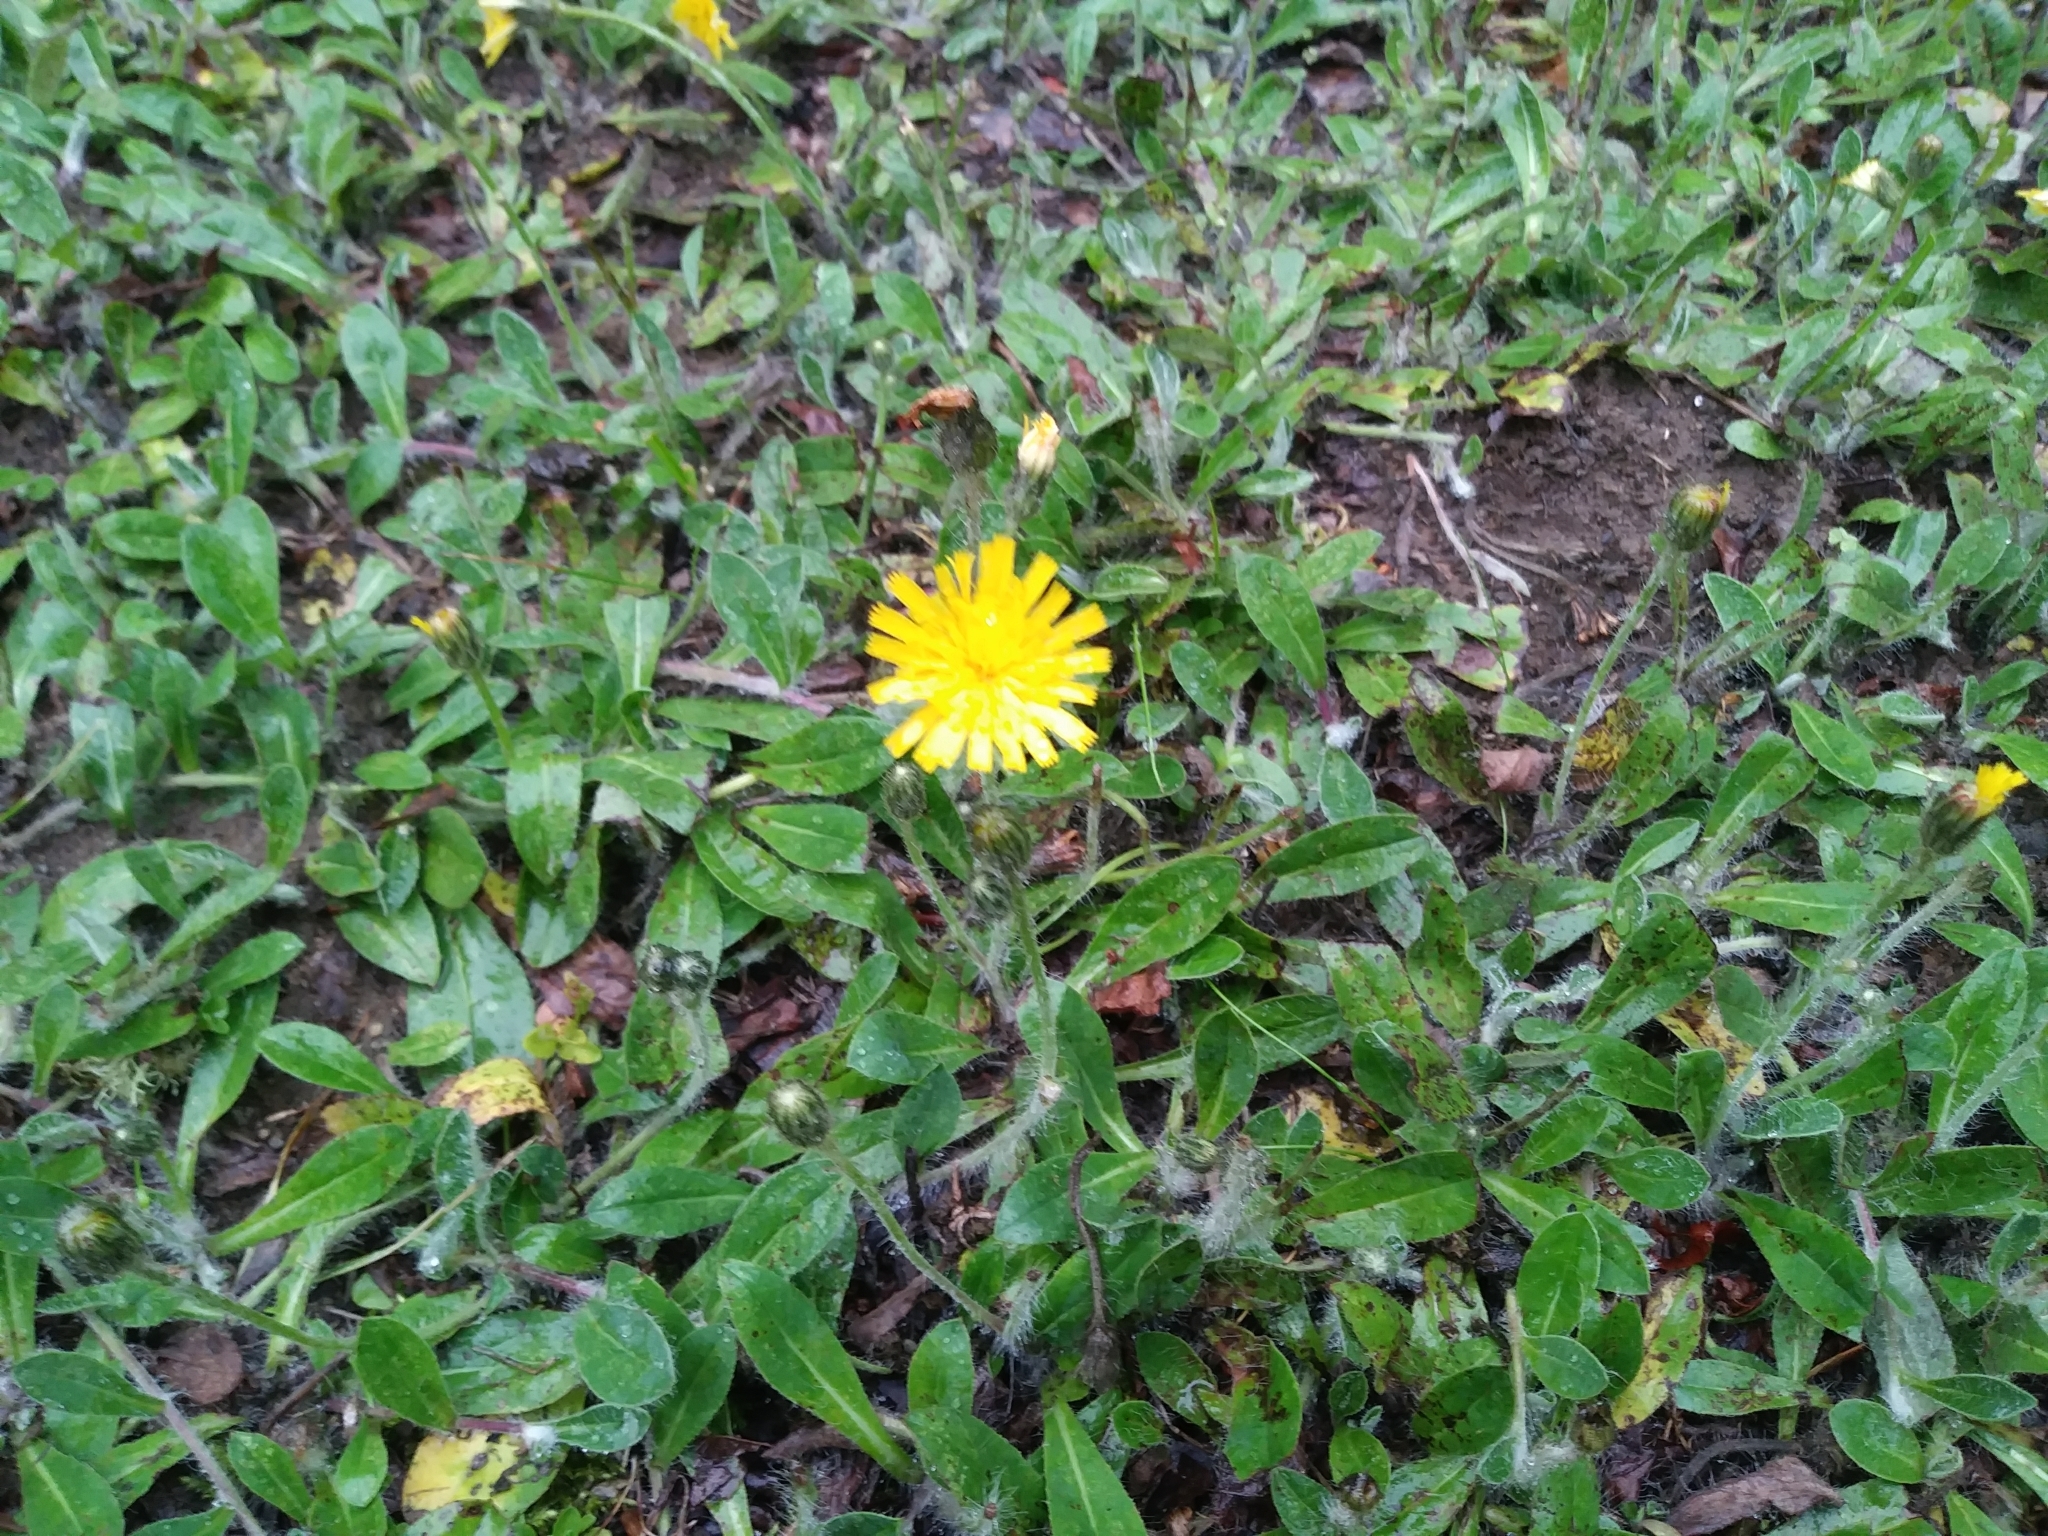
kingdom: Plantae
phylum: Tracheophyta
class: Magnoliopsida
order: Asterales
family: Asteraceae
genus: Pilosella
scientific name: Pilosella officinarum
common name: Mouse-ear hawkweed
